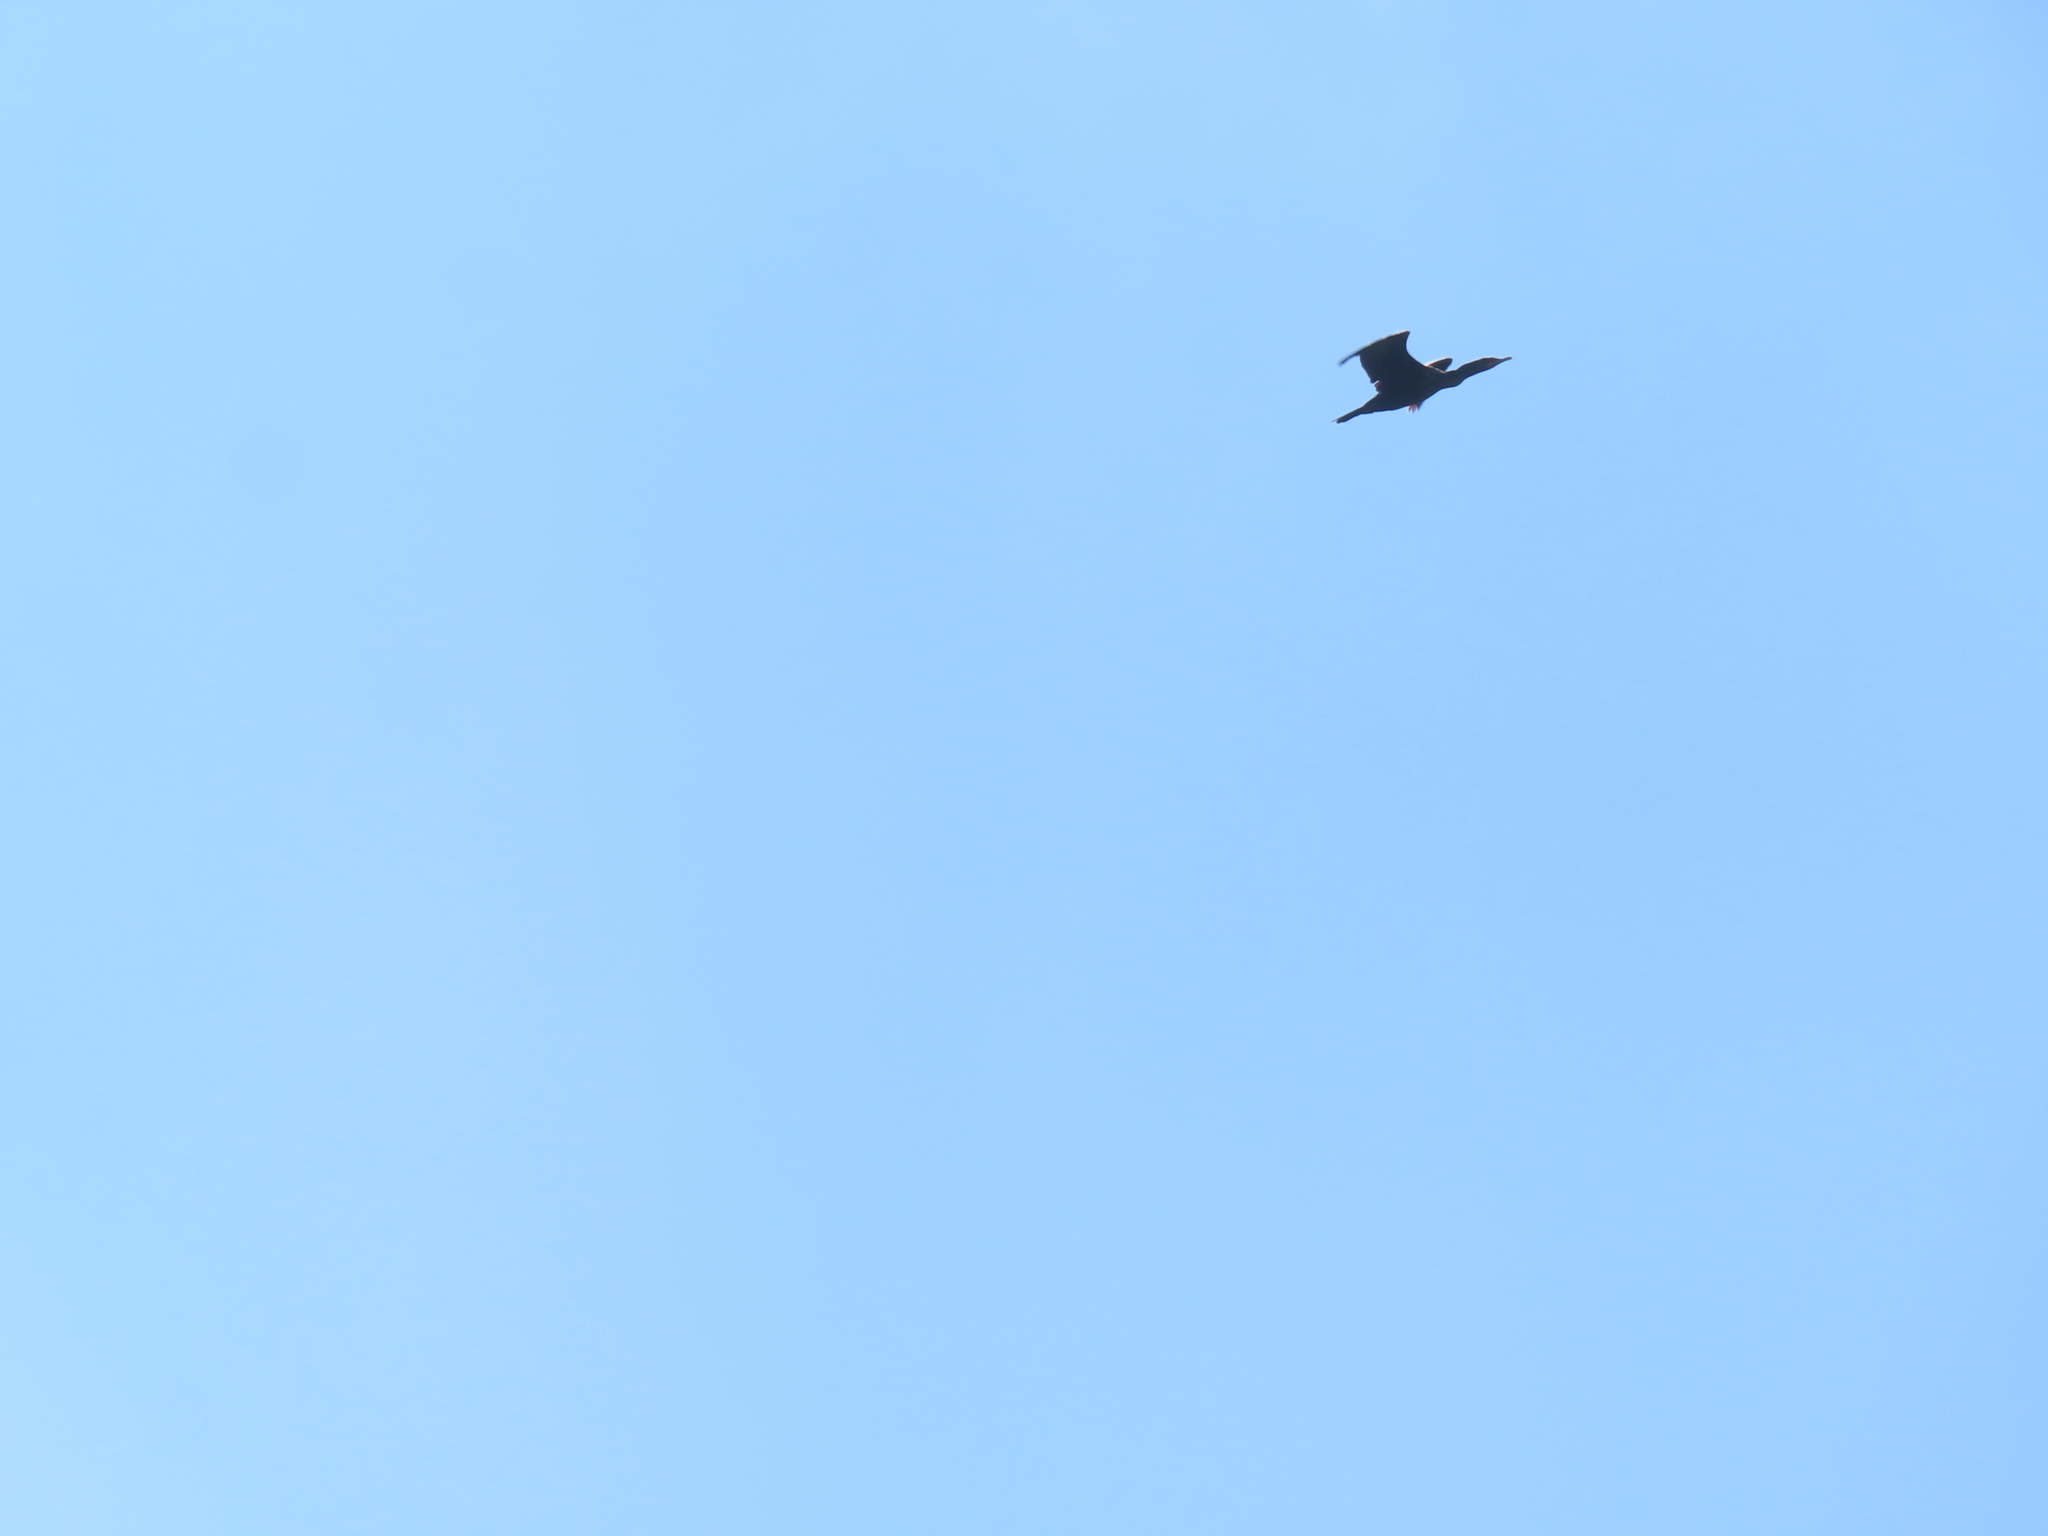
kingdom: Animalia
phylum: Chordata
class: Aves
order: Suliformes
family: Phalacrocoracidae
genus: Phalacrocorax
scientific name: Phalacrocorax auritus
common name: Double-crested cormorant
